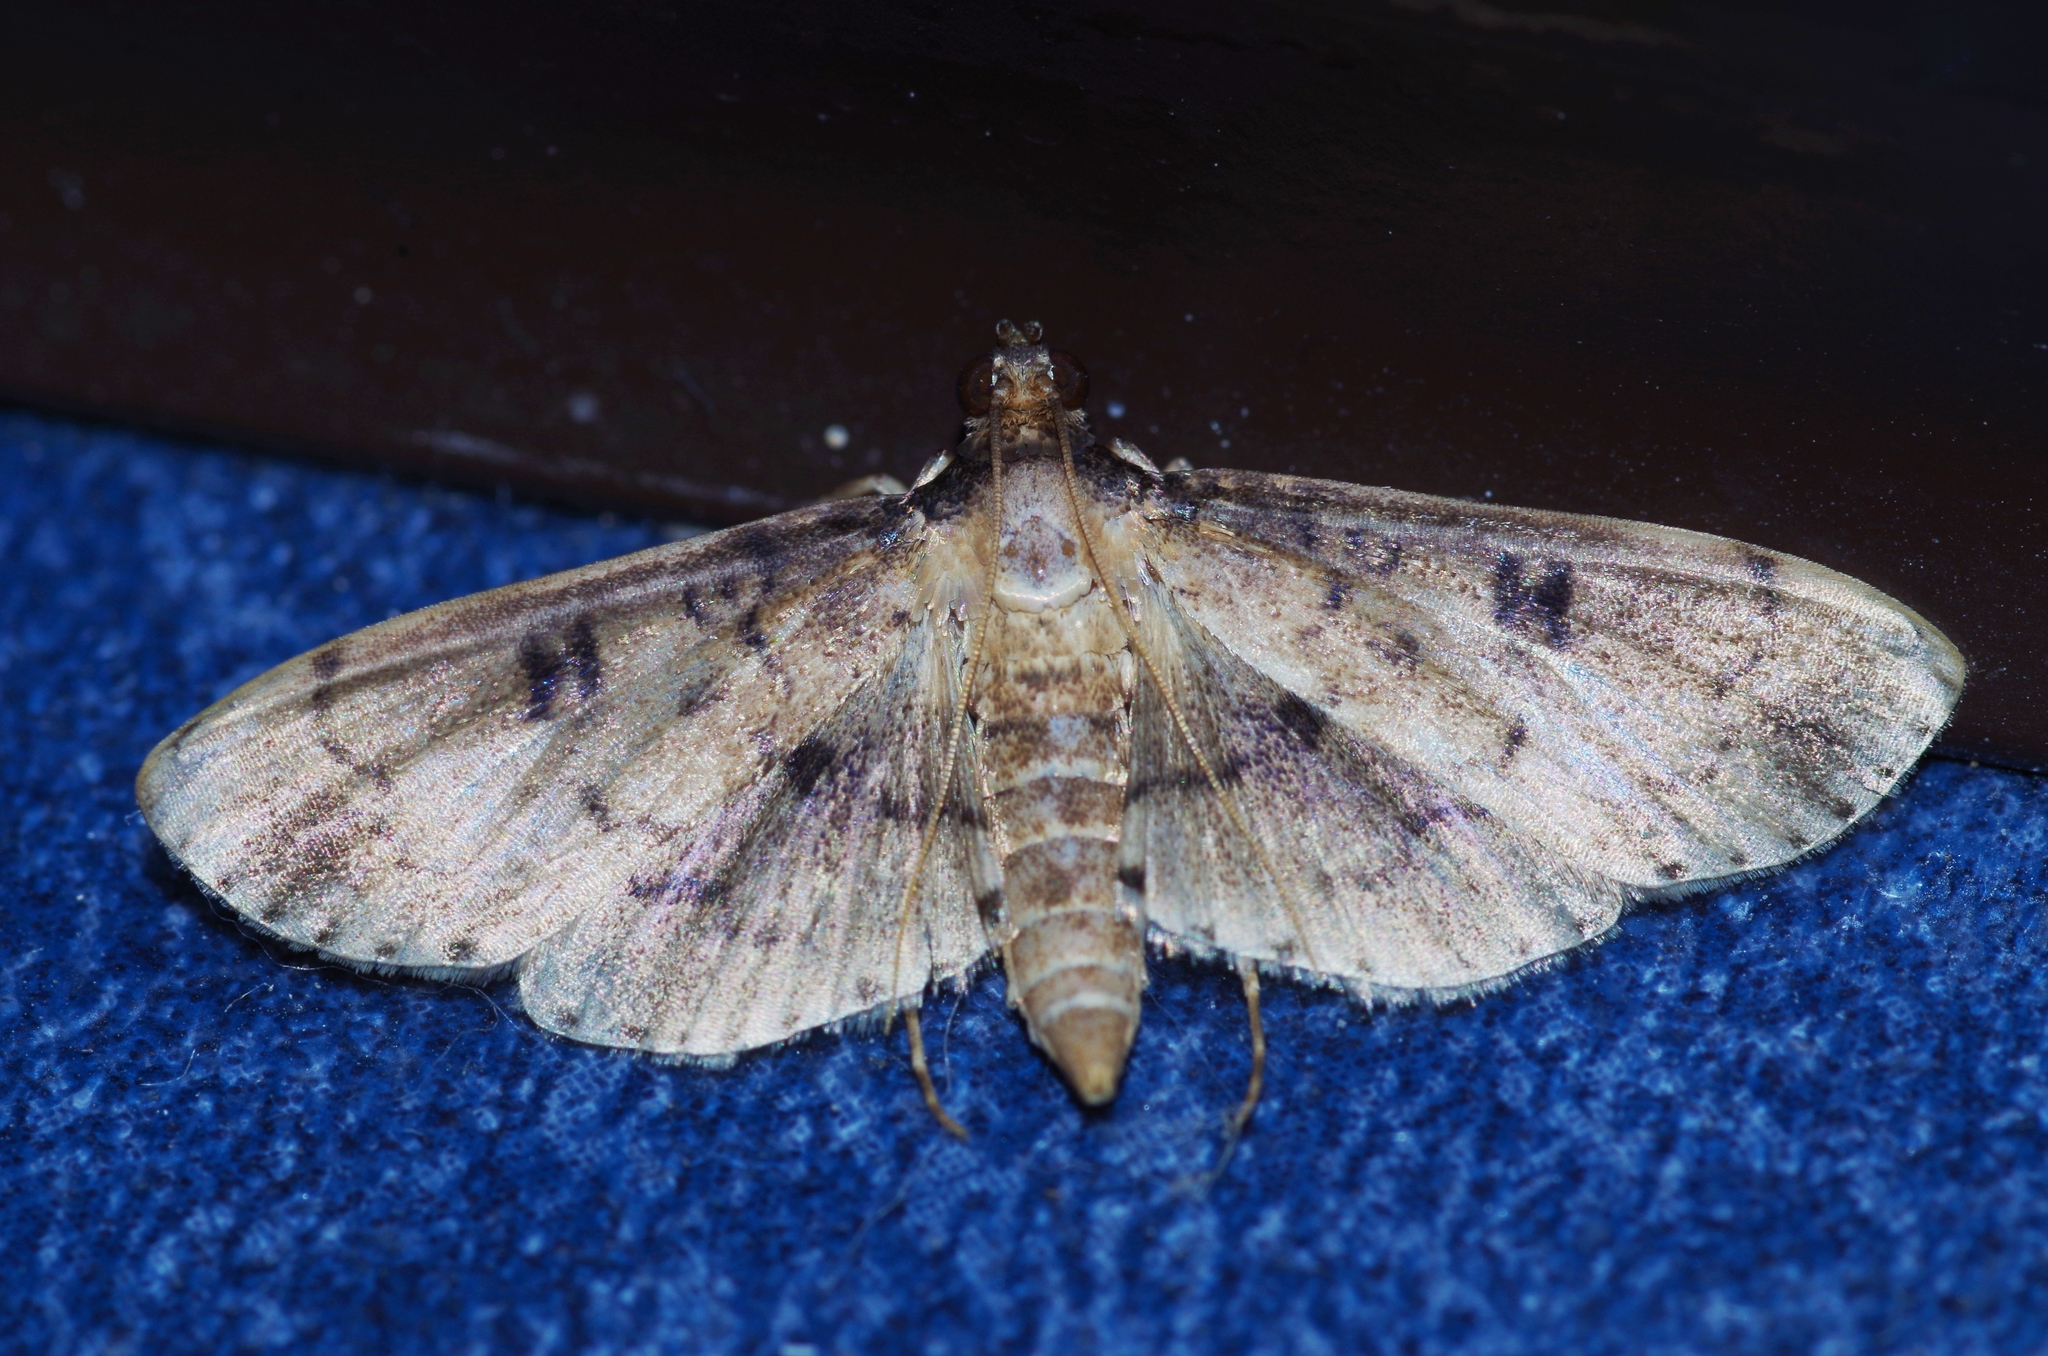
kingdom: Animalia
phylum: Arthropoda
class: Insecta
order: Lepidoptera
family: Crambidae
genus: Nacoleia
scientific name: Nacoleia charesalis
